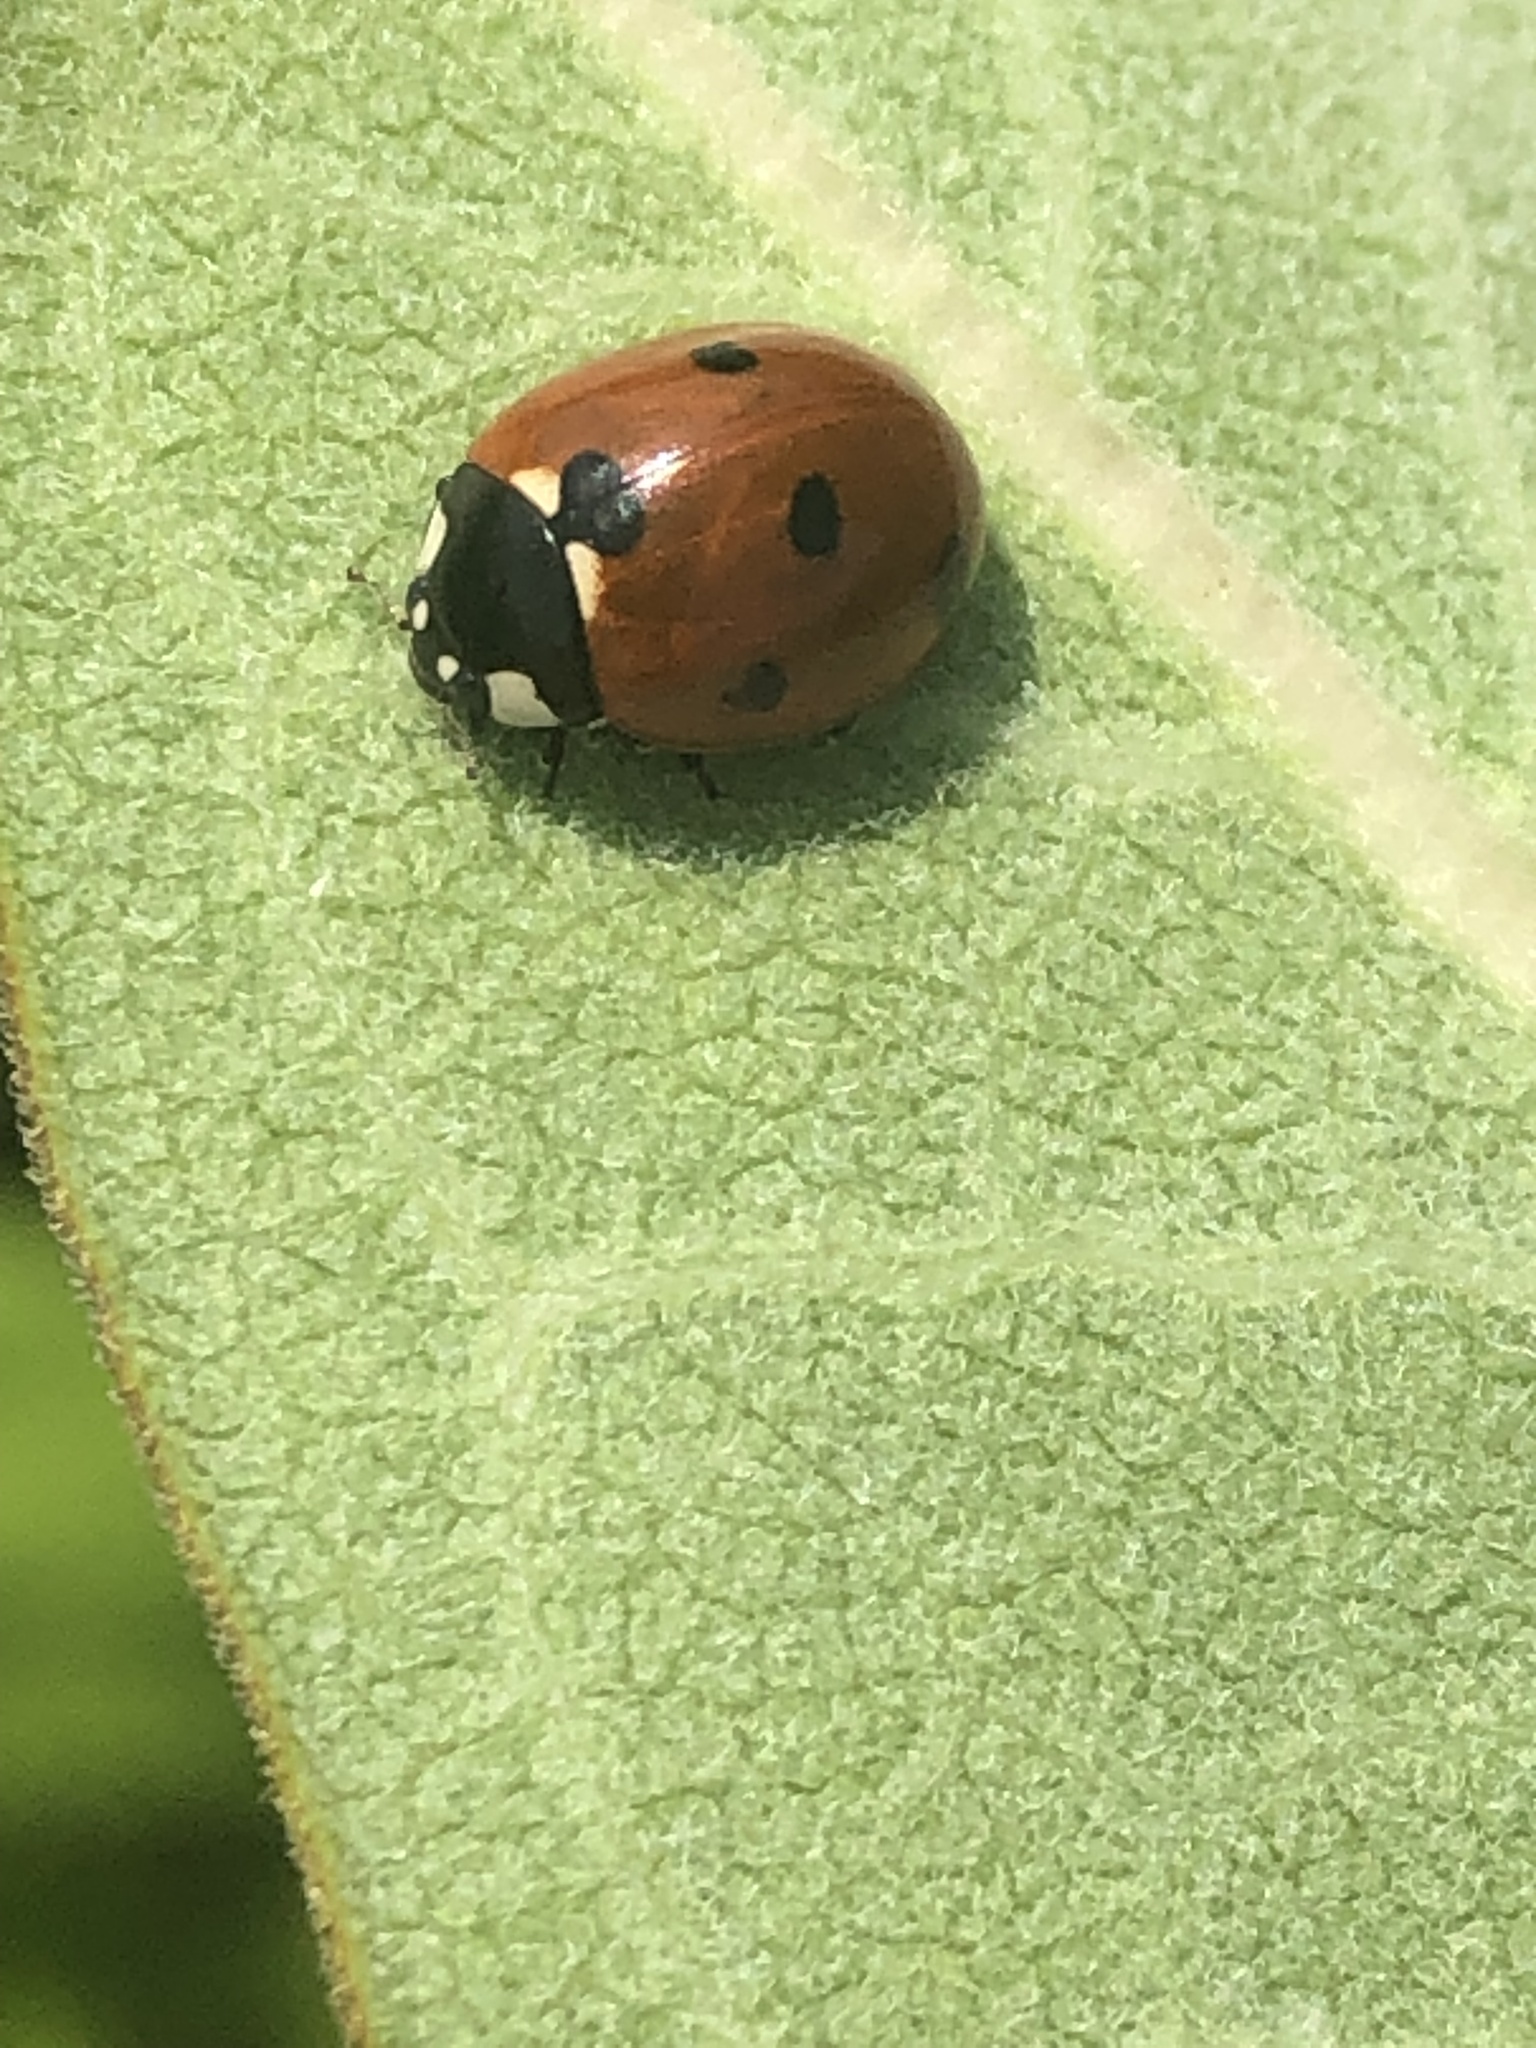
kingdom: Animalia
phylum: Arthropoda
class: Insecta
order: Coleoptera
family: Coccinellidae
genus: Coccinella
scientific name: Coccinella septempunctata
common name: Sevenspotted lady beetle
